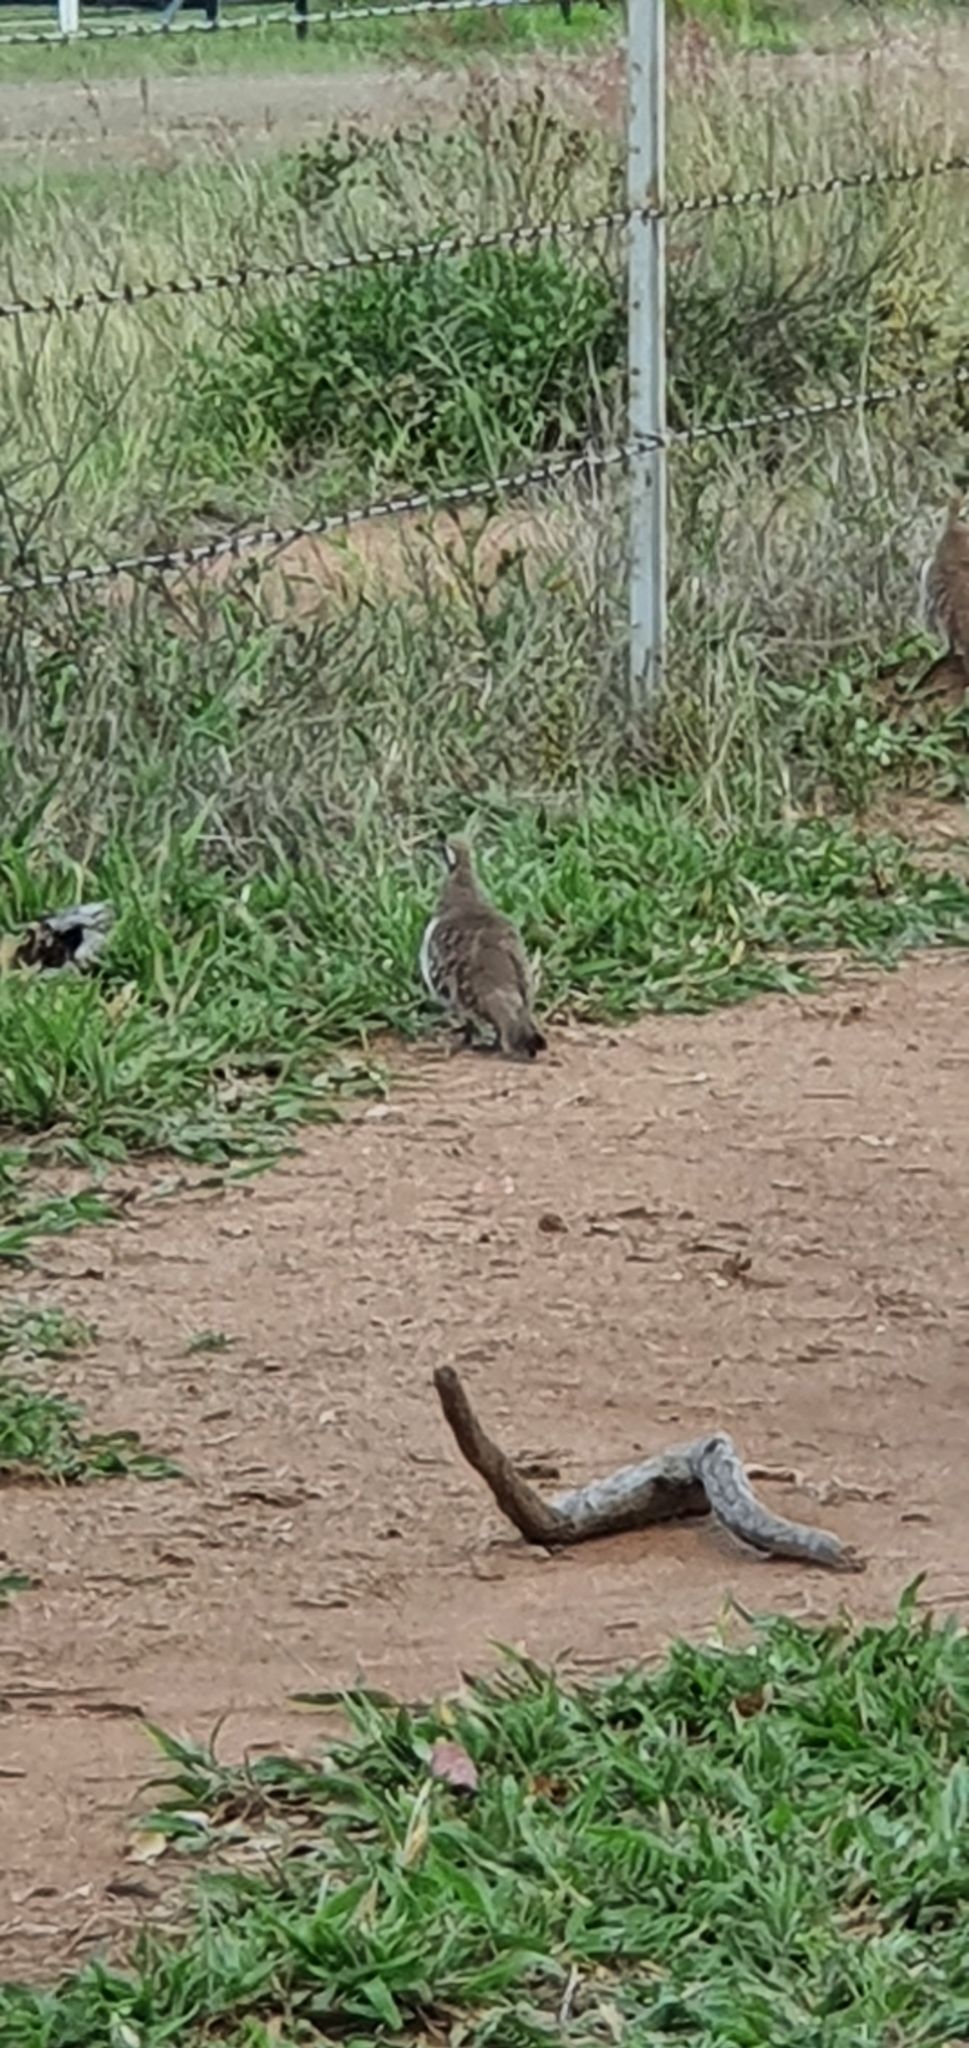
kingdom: Animalia
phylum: Chordata
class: Aves
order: Columbiformes
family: Columbidae
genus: Geophaps
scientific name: Geophaps scripta
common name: Squatter pigeon
